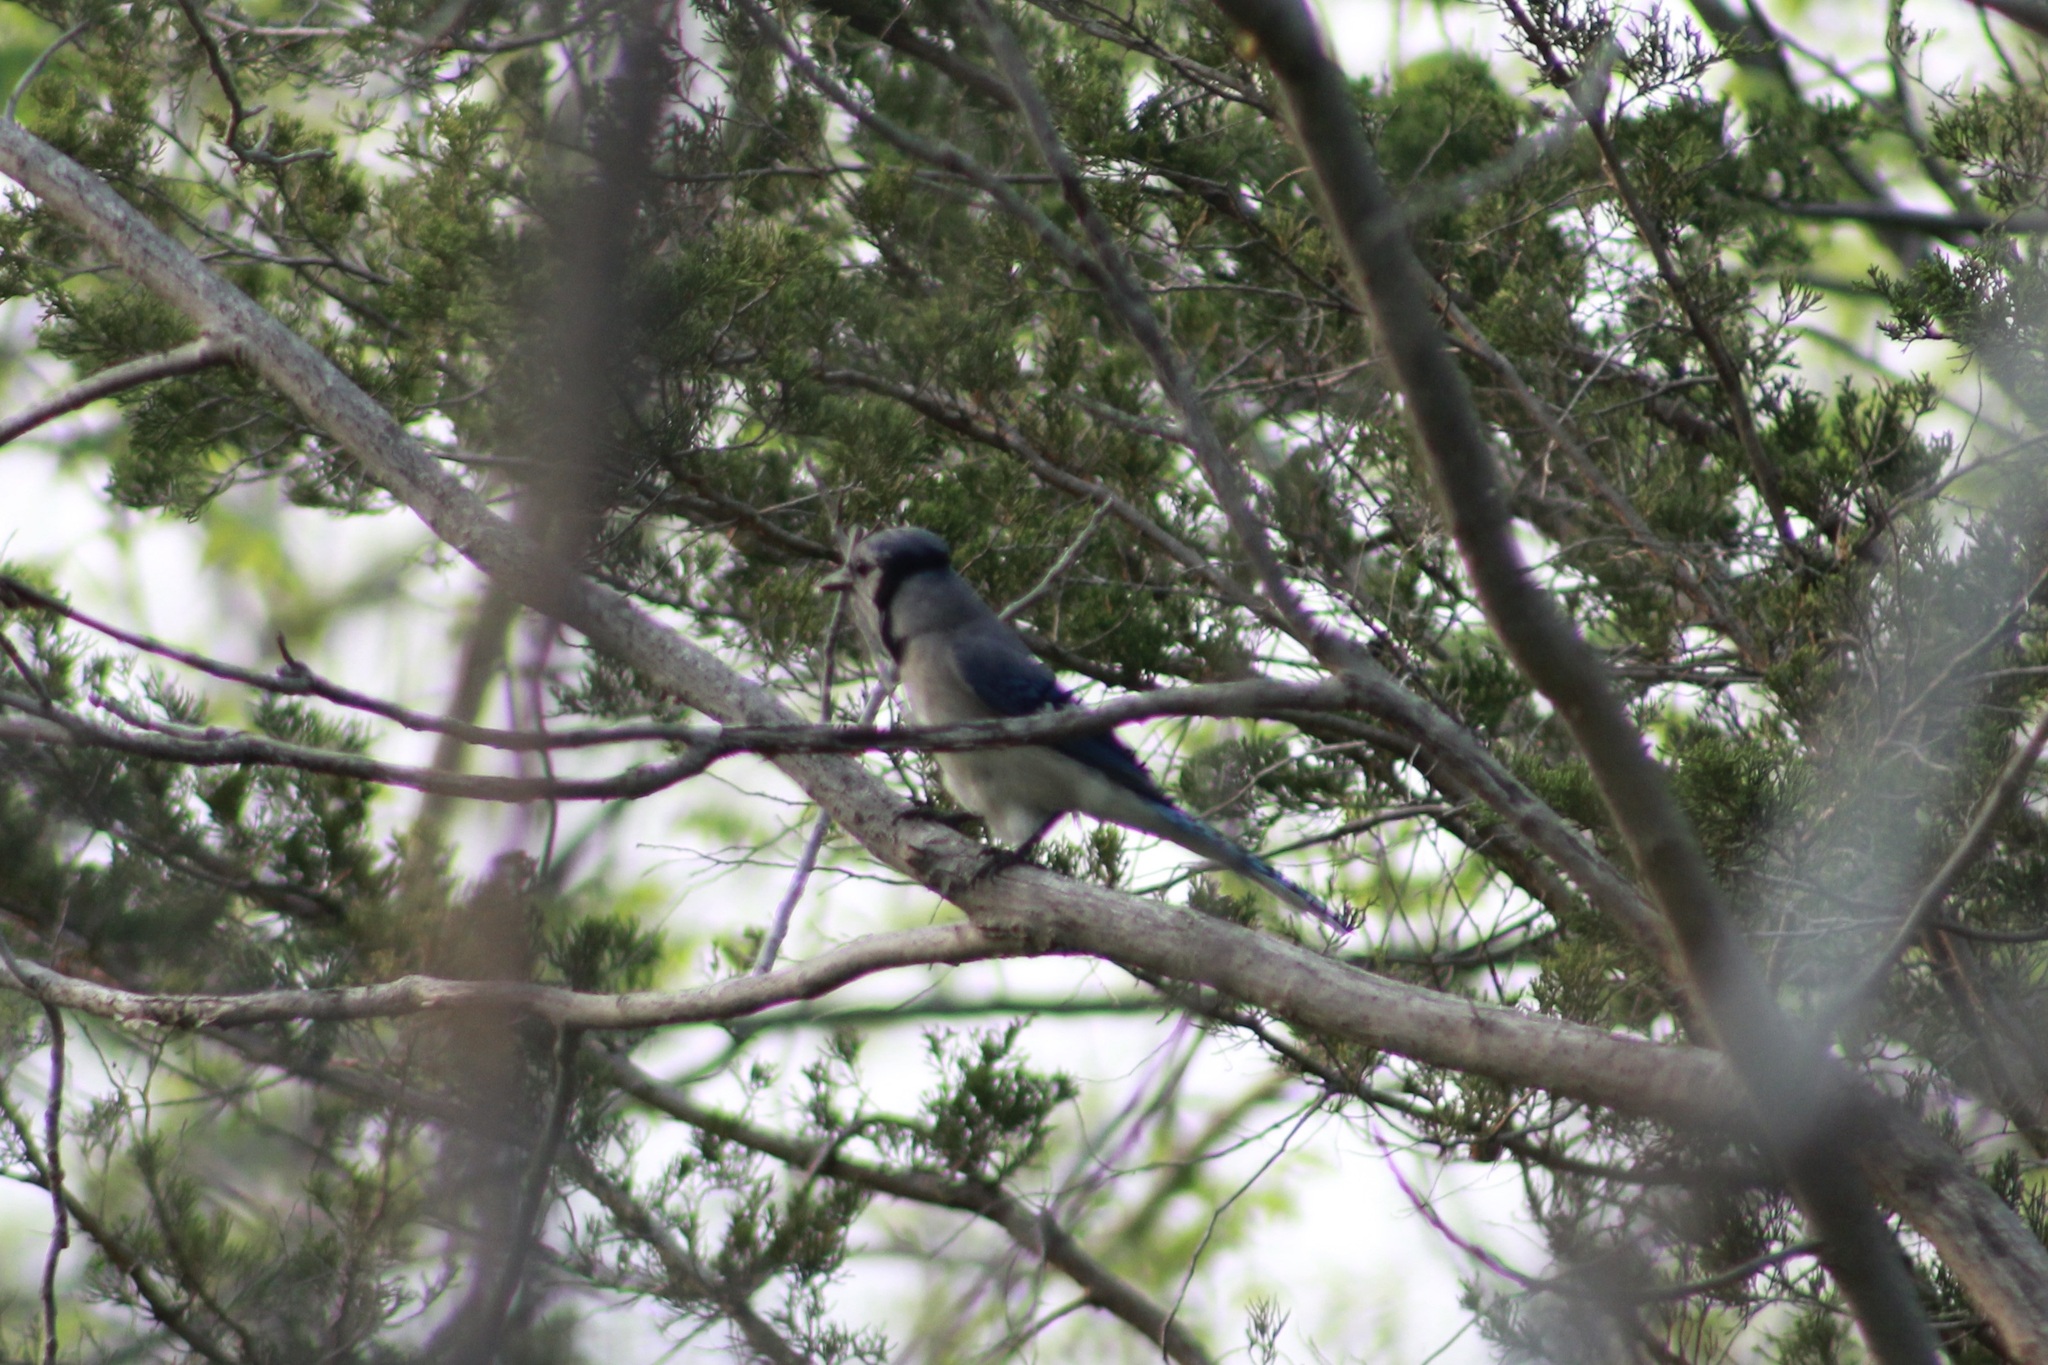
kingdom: Animalia
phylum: Chordata
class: Aves
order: Passeriformes
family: Corvidae
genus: Cyanocitta
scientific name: Cyanocitta cristata
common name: Blue jay
